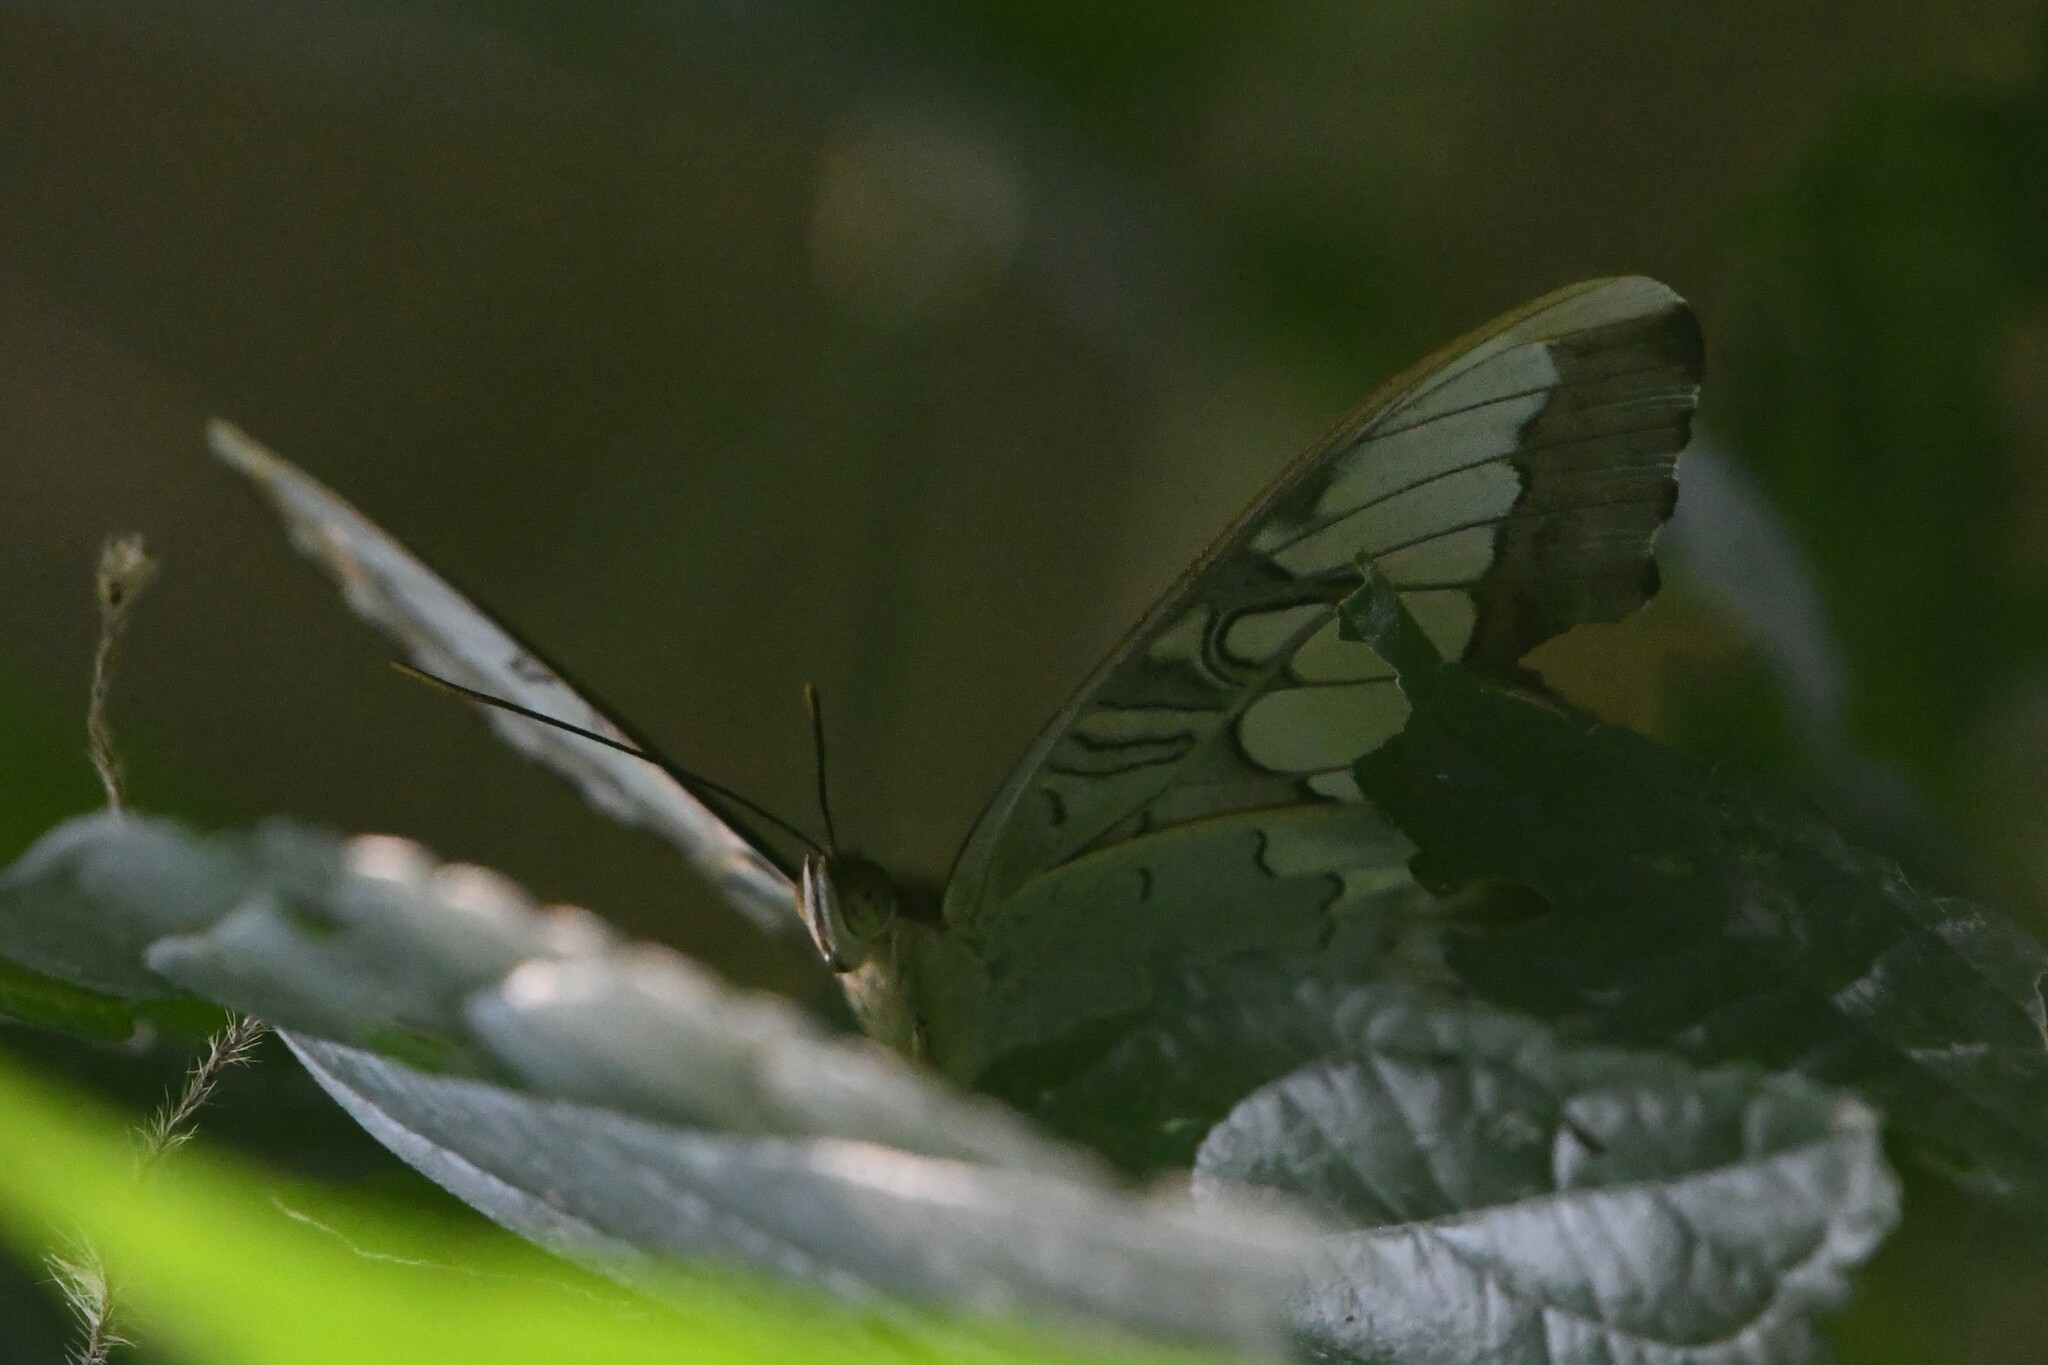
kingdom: Animalia
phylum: Arthropoda
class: Insecta
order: Lepidoptera
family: Nymphalidae
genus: Kallima
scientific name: Kallima sylvia
